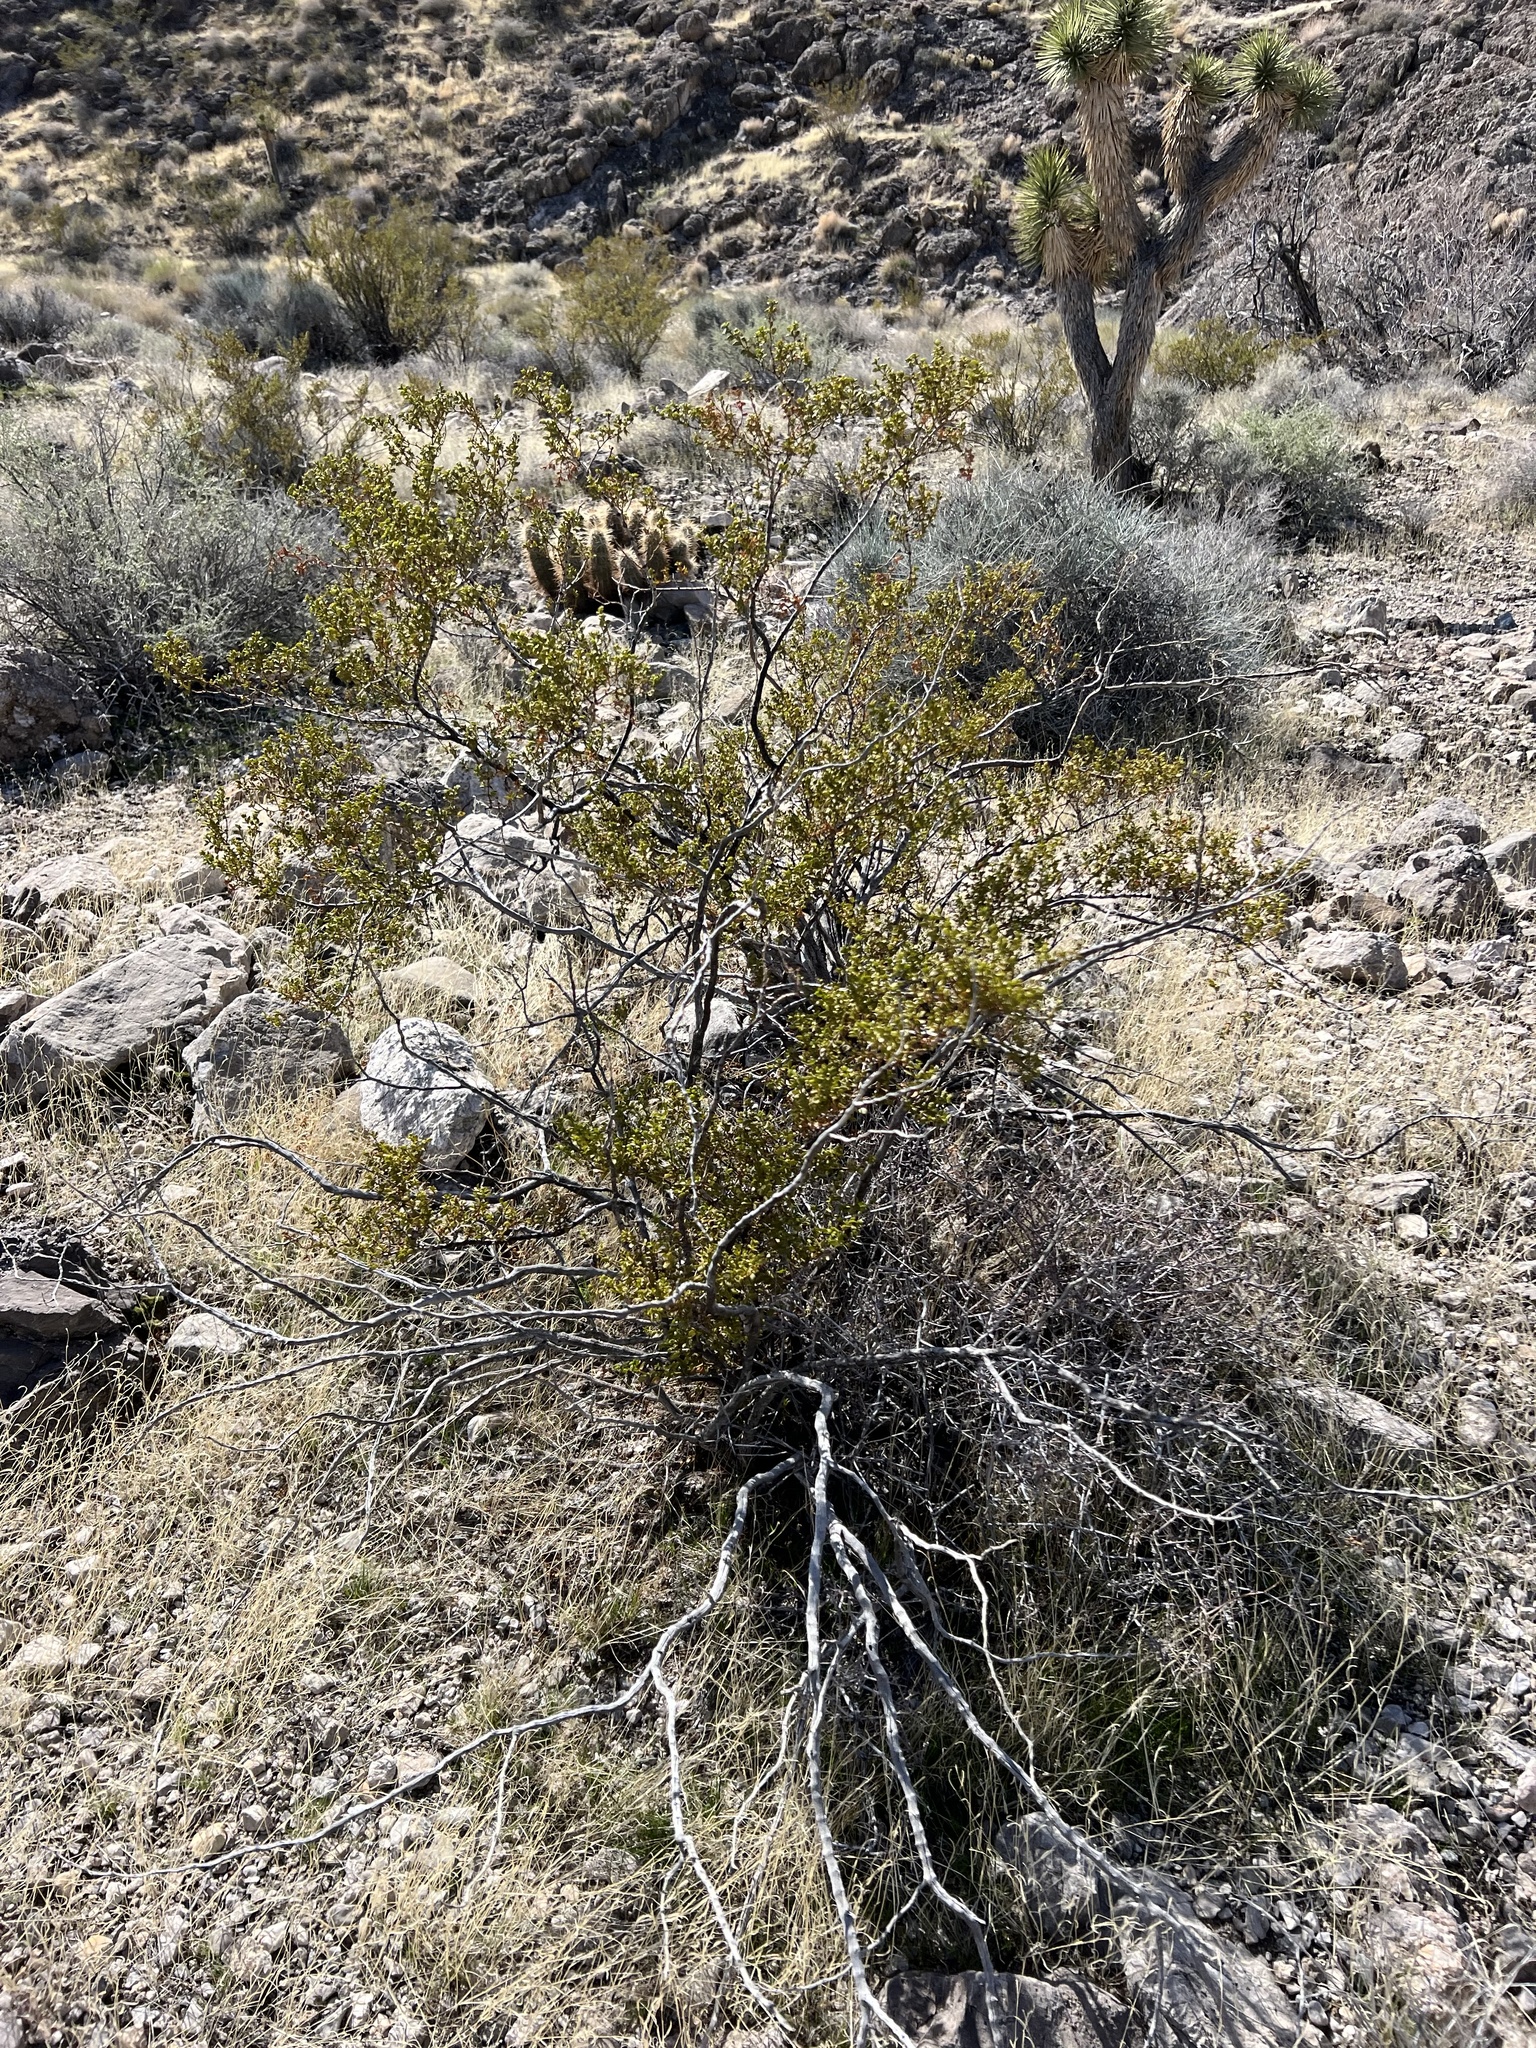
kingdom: Plantae
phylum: Tracheophyta
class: Magnoliopsida
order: Zygophyllales
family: Zygophyllaceae
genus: Larrea
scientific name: Larrea tridentata
